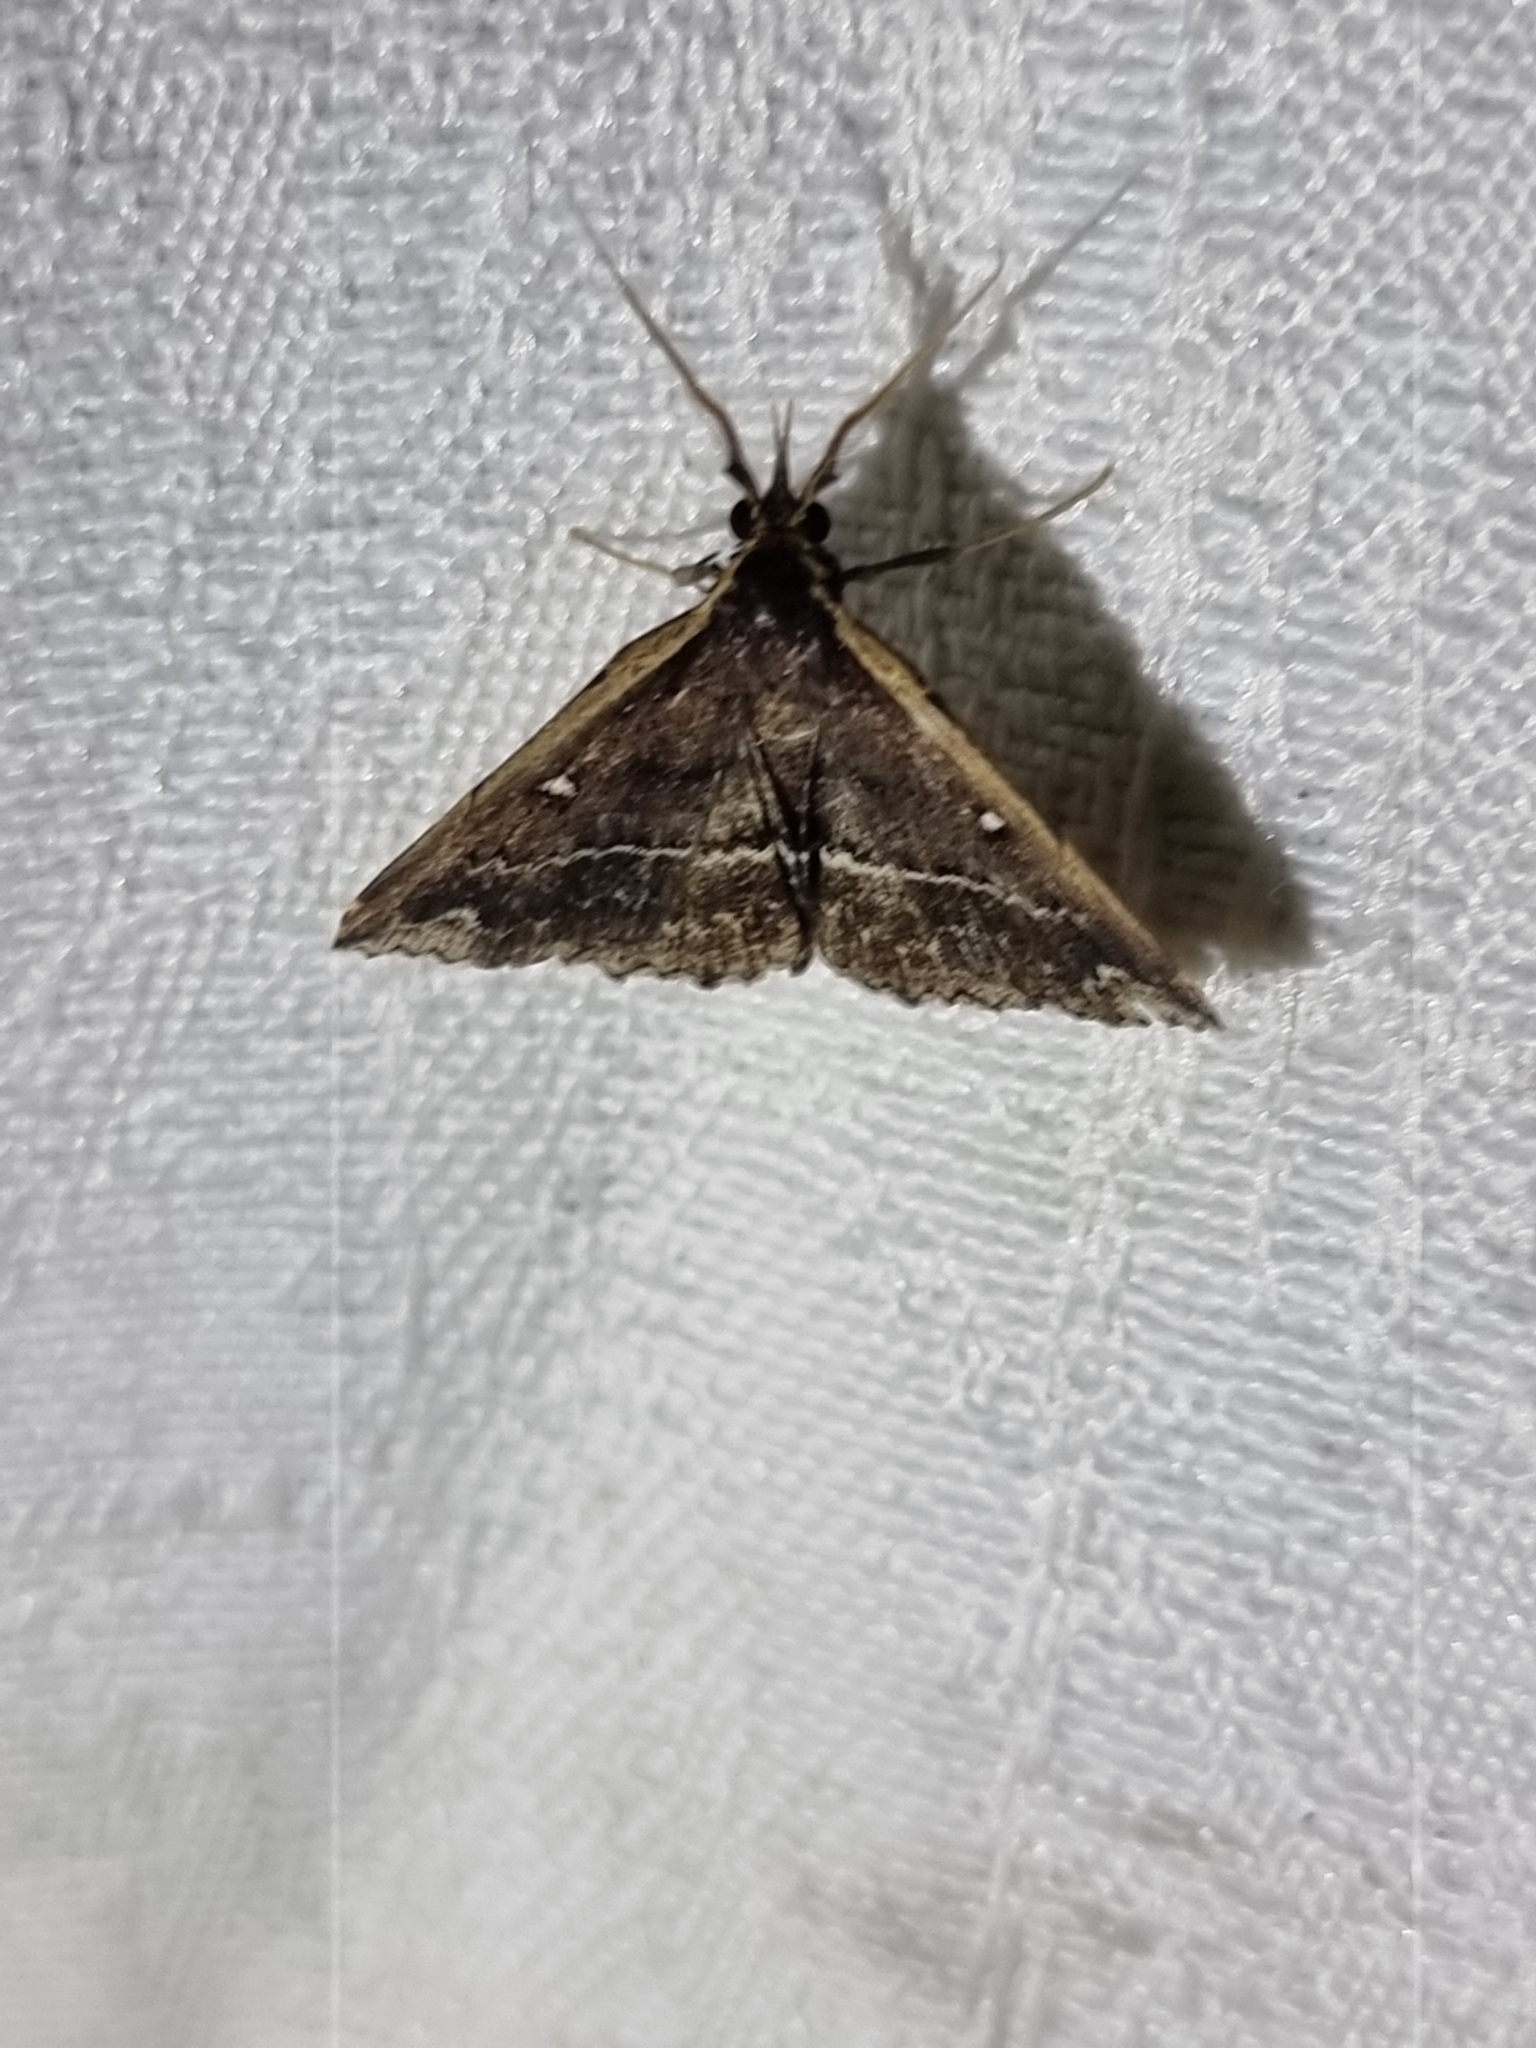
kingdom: Animalia
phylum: Arthropoda
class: Insecta
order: Lepidoptera
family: Erebidae
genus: Adrapsa
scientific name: Adrapsa ablualis
